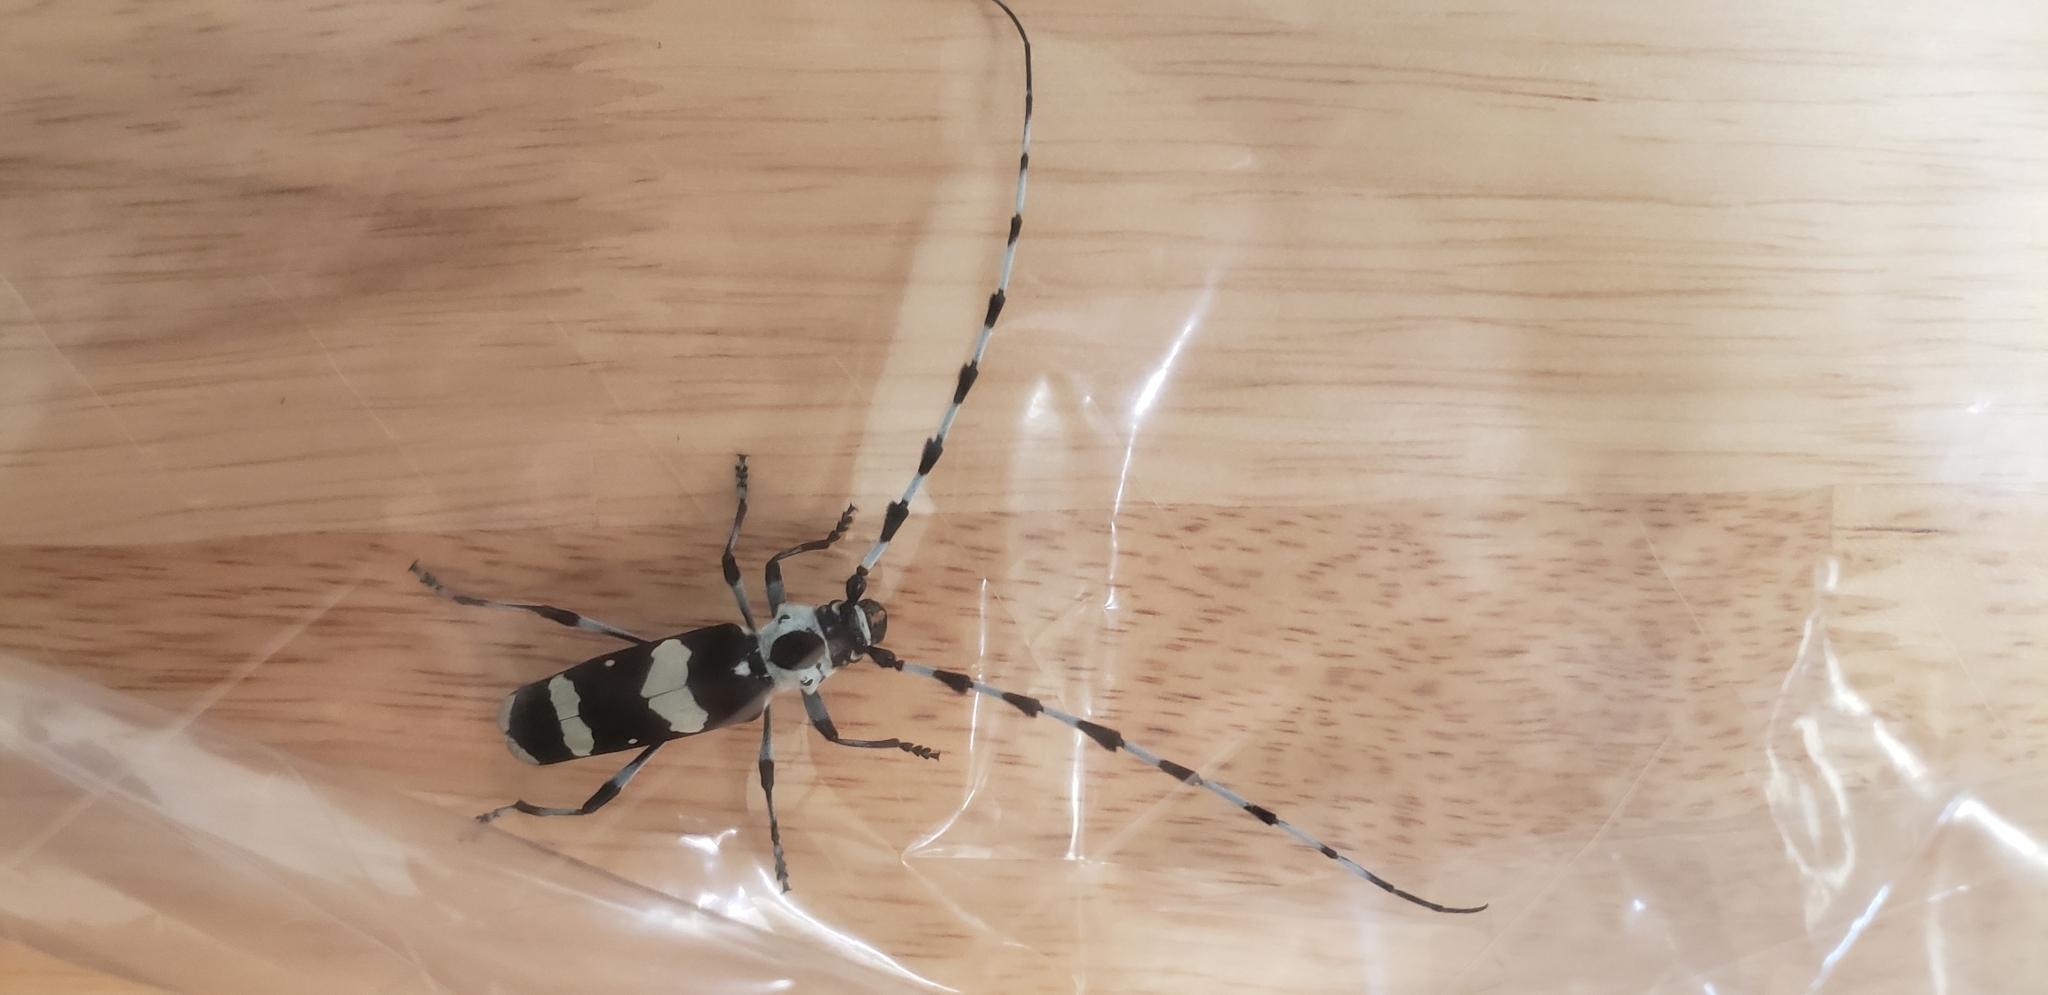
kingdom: Animalia
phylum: Arthropoda
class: Insecta
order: Coleoptera
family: Cerambycidae
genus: Rosalia
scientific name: Rosalia funebris
